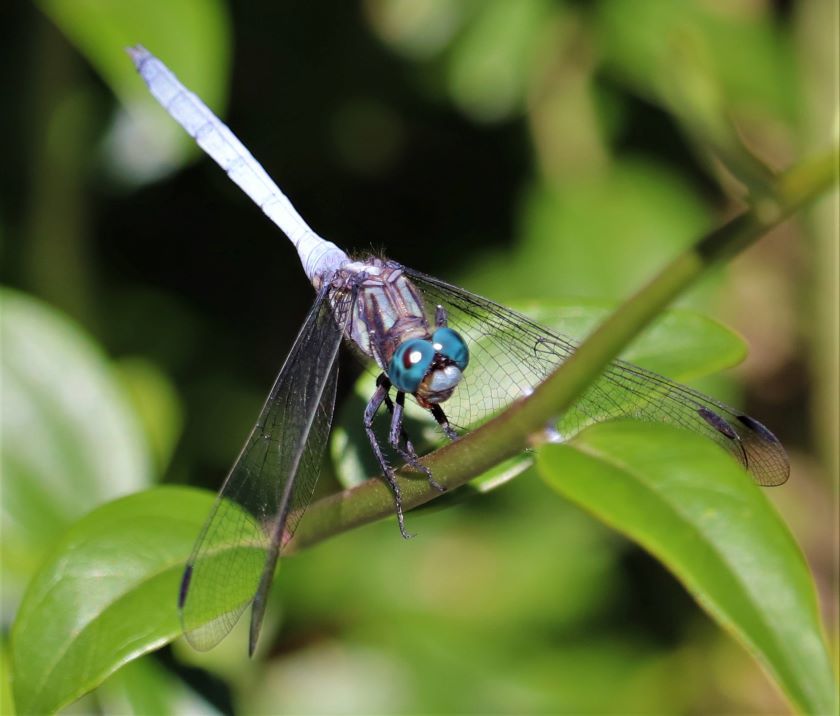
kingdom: Animalia
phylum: Arthropoda
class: Insecta
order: Odonata
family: Libellulidae
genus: Orthetrum
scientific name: Orthetrum julia
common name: Julia skimmer
